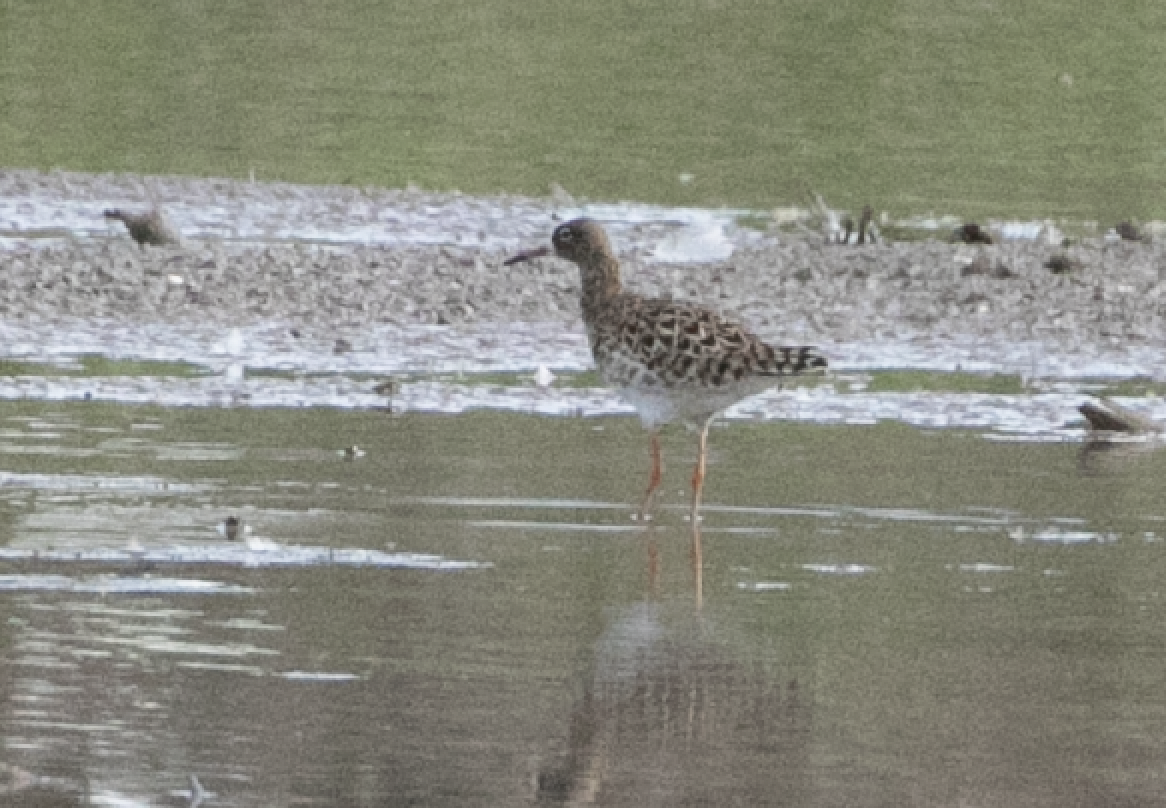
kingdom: Animalia
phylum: Chordata
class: Aves
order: Charadriiformes
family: Scolopacidae
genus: Calidris
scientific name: Calidris pugnax
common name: Ruff
